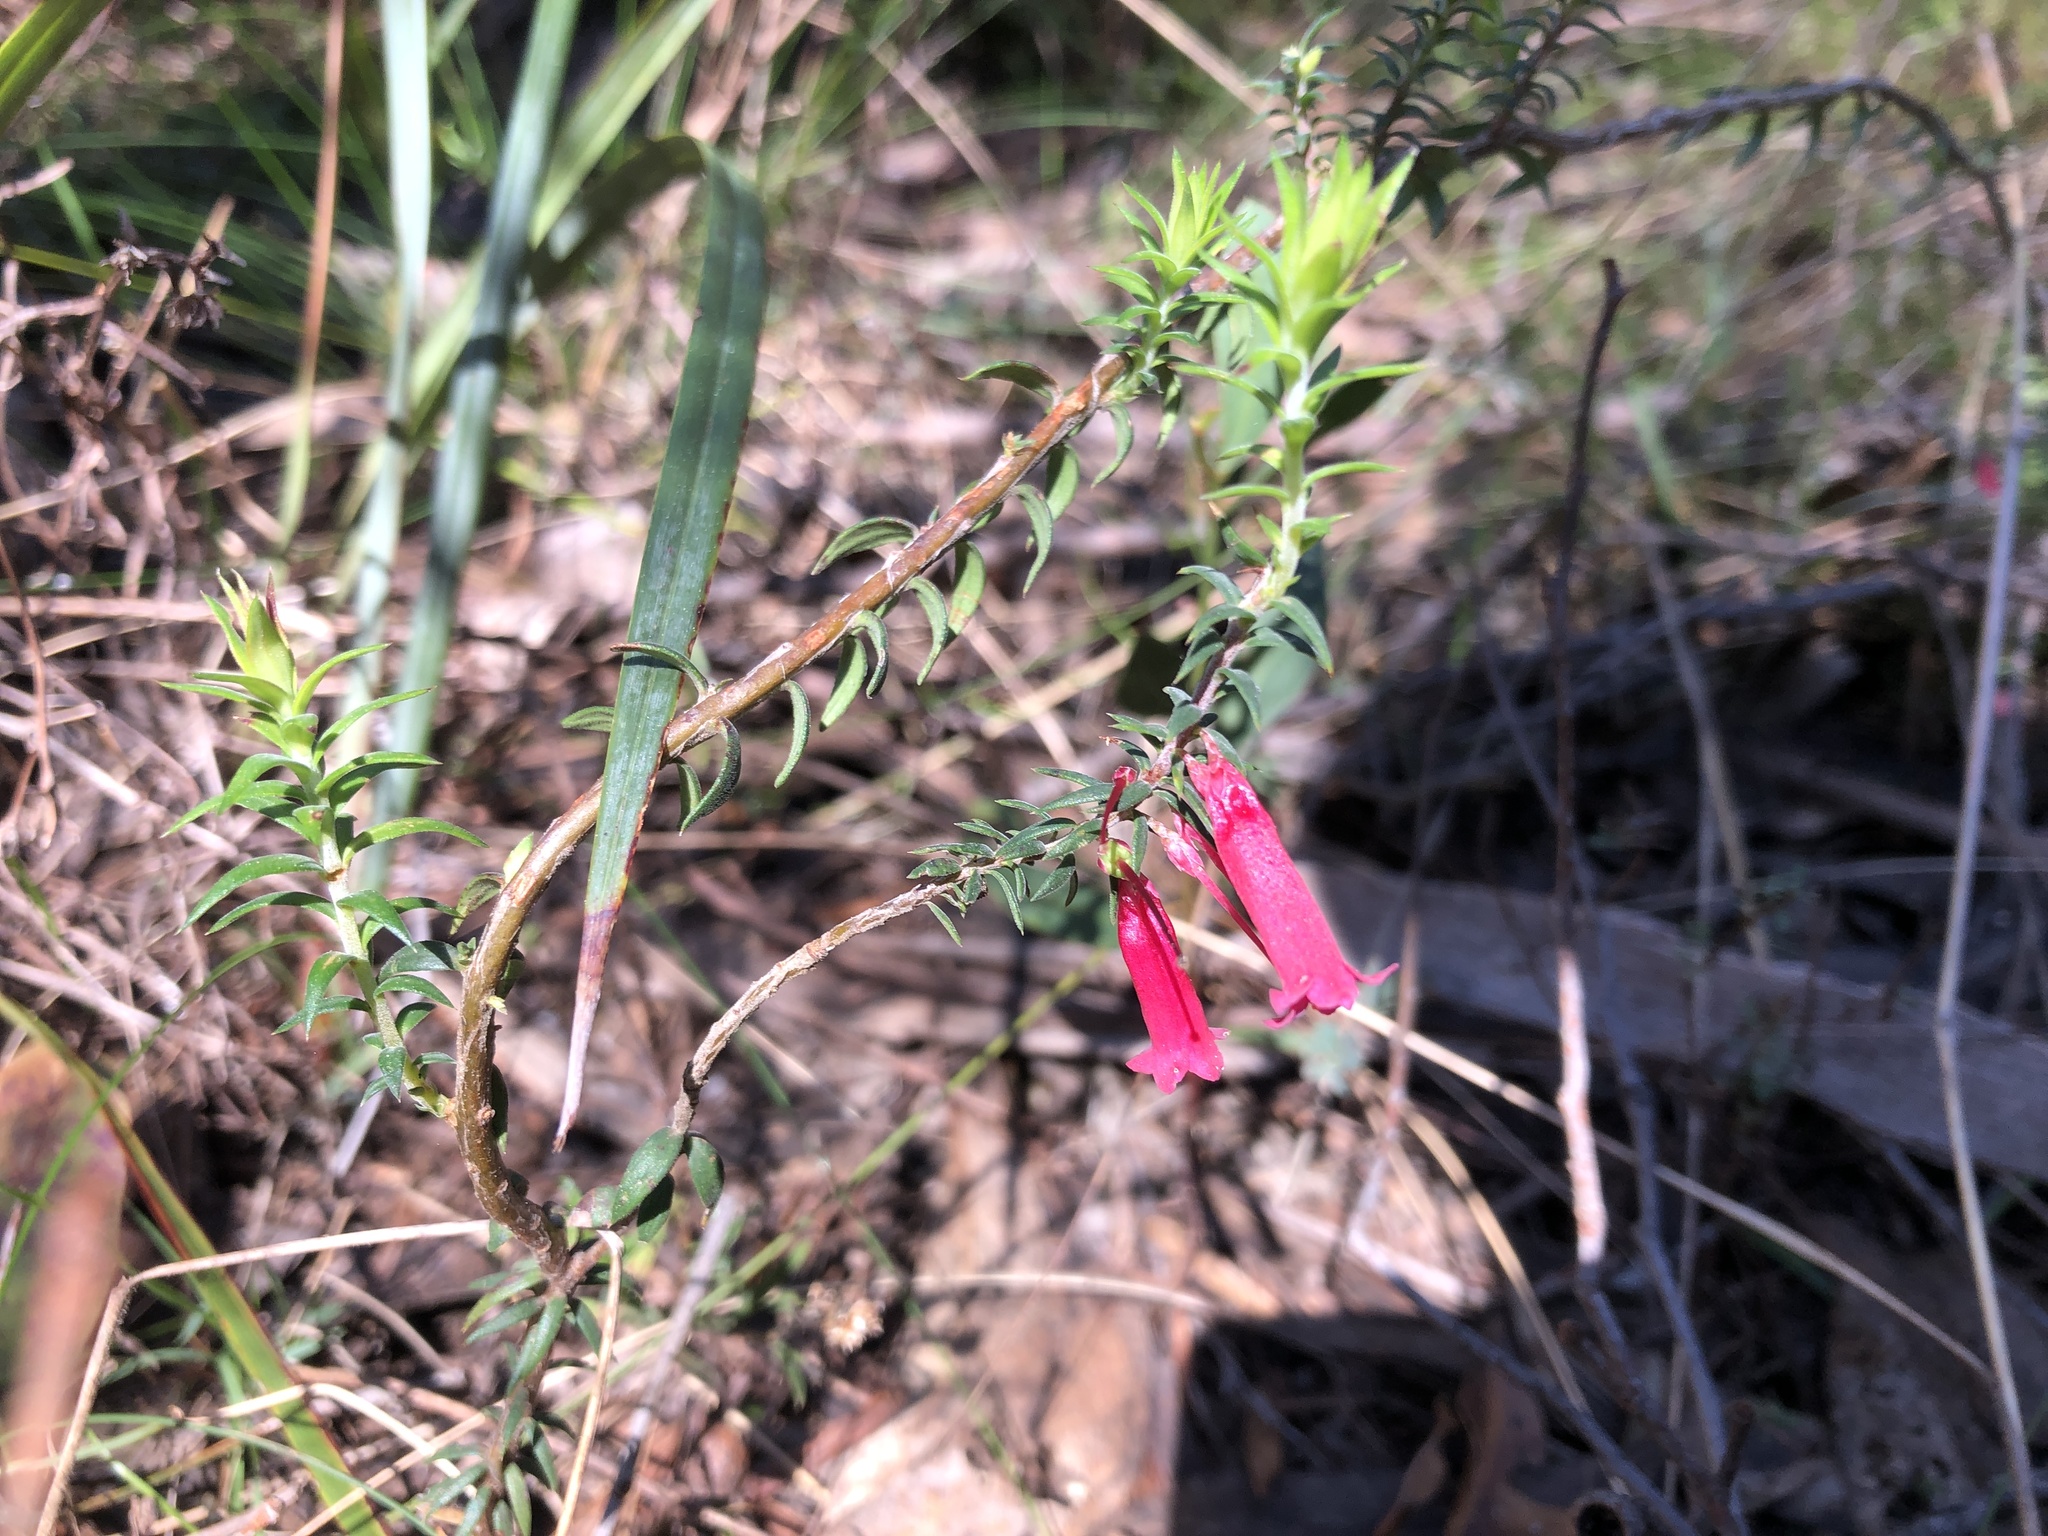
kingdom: Plantae
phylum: Tracheophyta
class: Magnoliopsida
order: Ericales
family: Ericaceae
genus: Epacris
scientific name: Epacris impressa
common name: Common-heath
